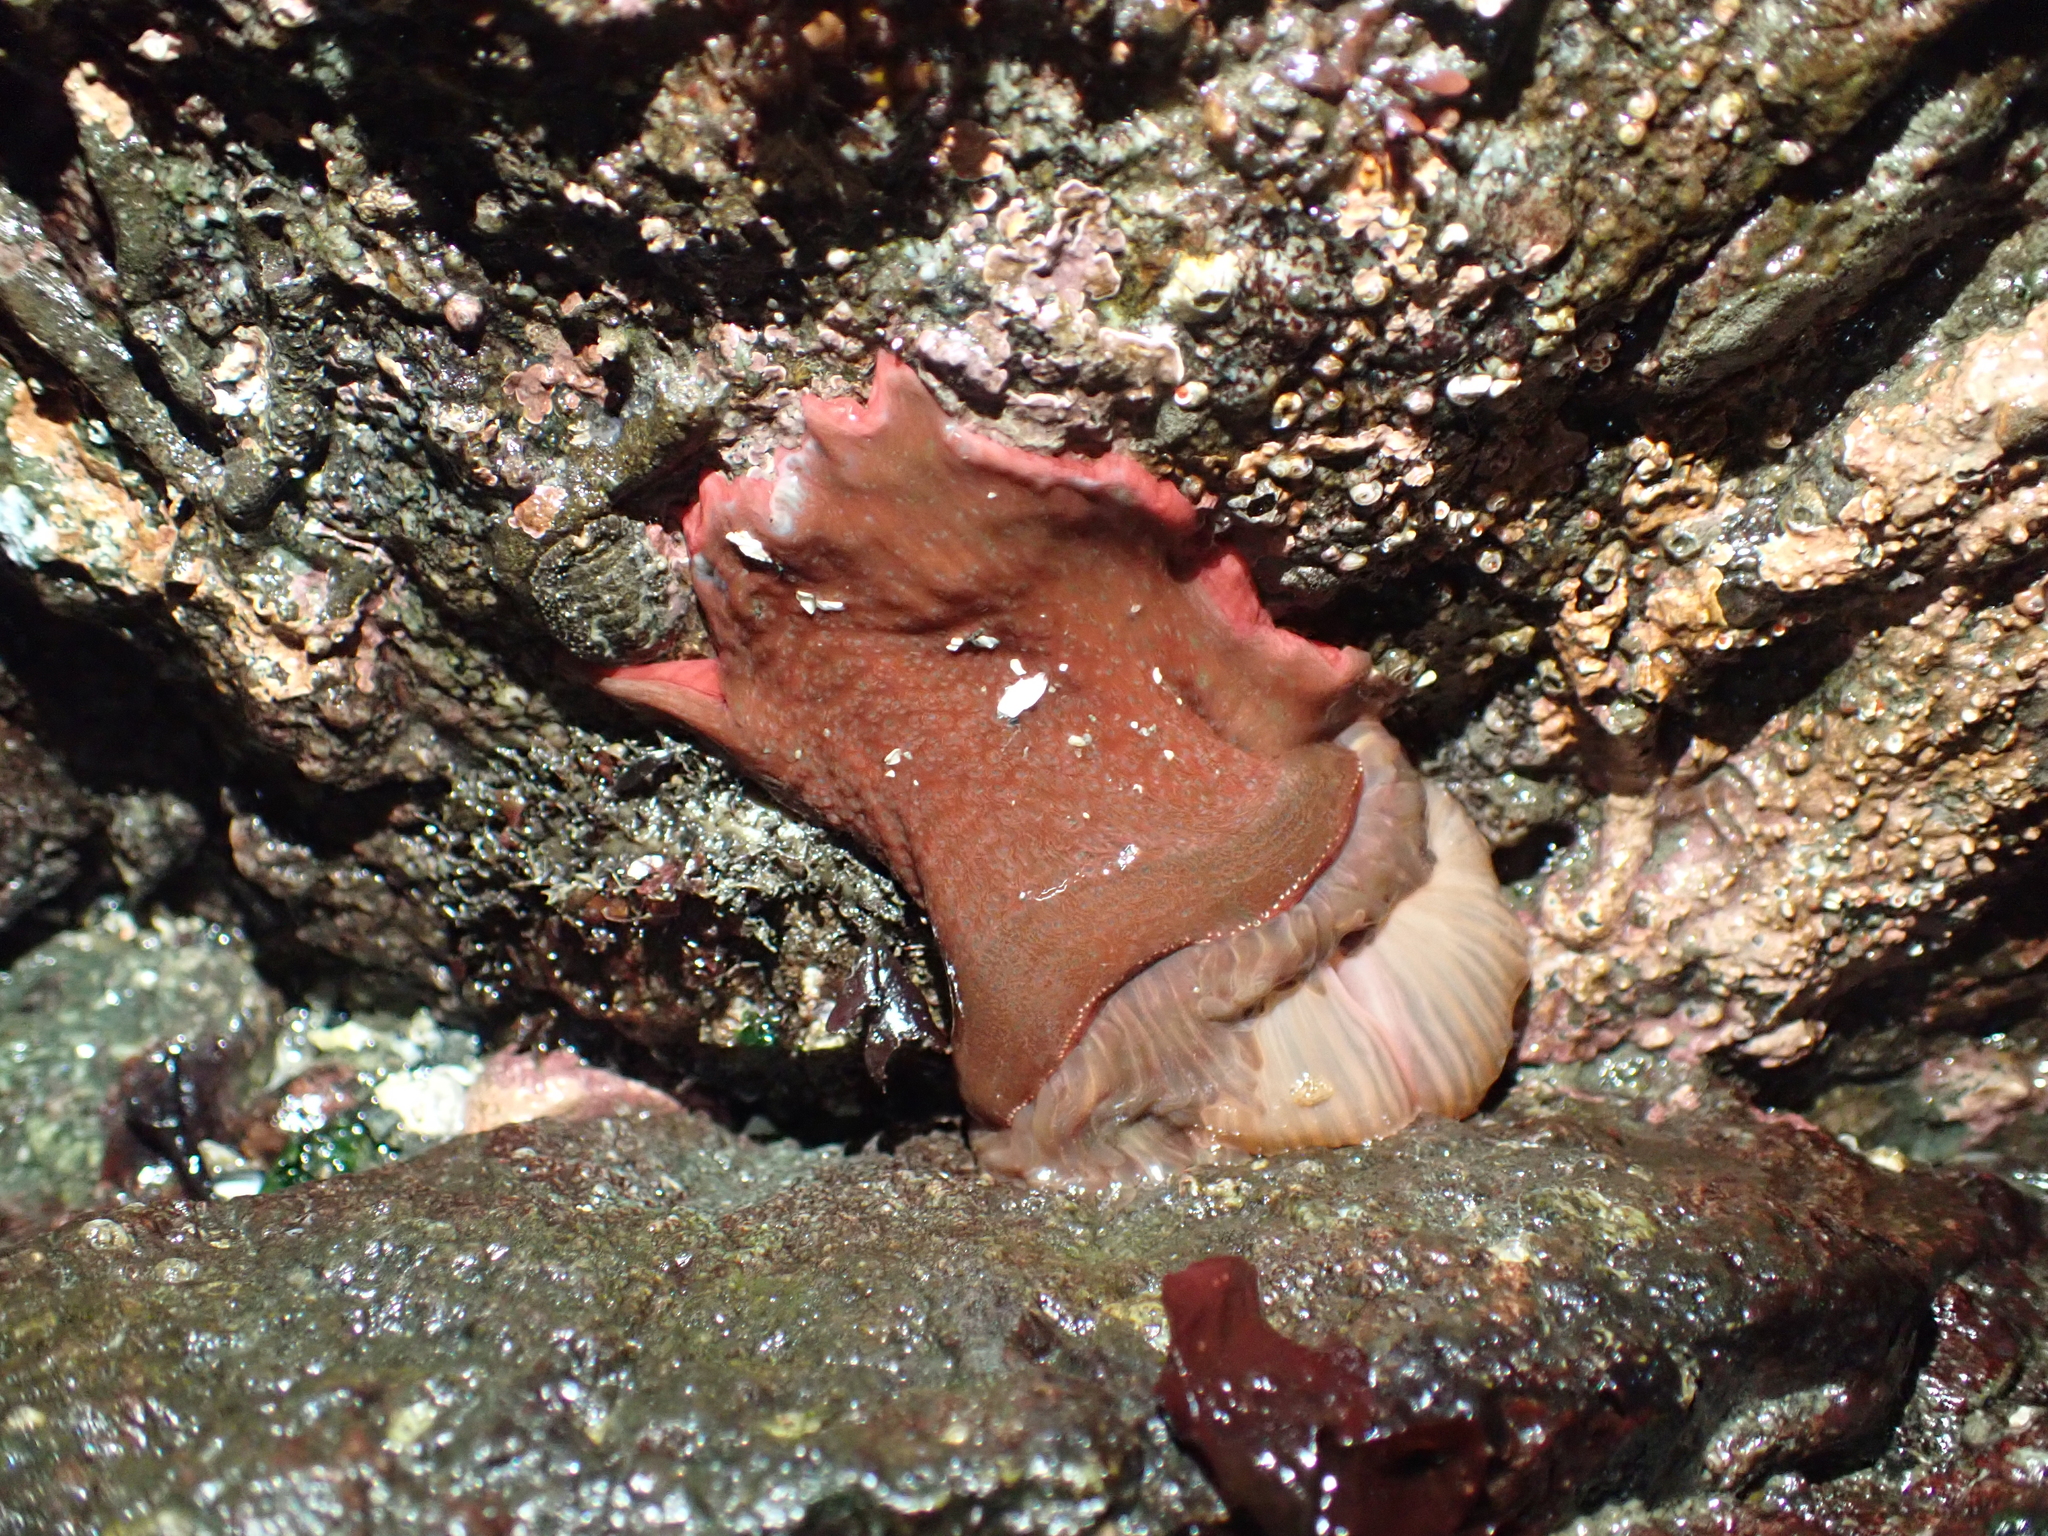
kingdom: Animalia
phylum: Cnidaria
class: Anthozoa
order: Actiniaria
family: Actiniidae
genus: Urticina
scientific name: Urticina grebelnyi
